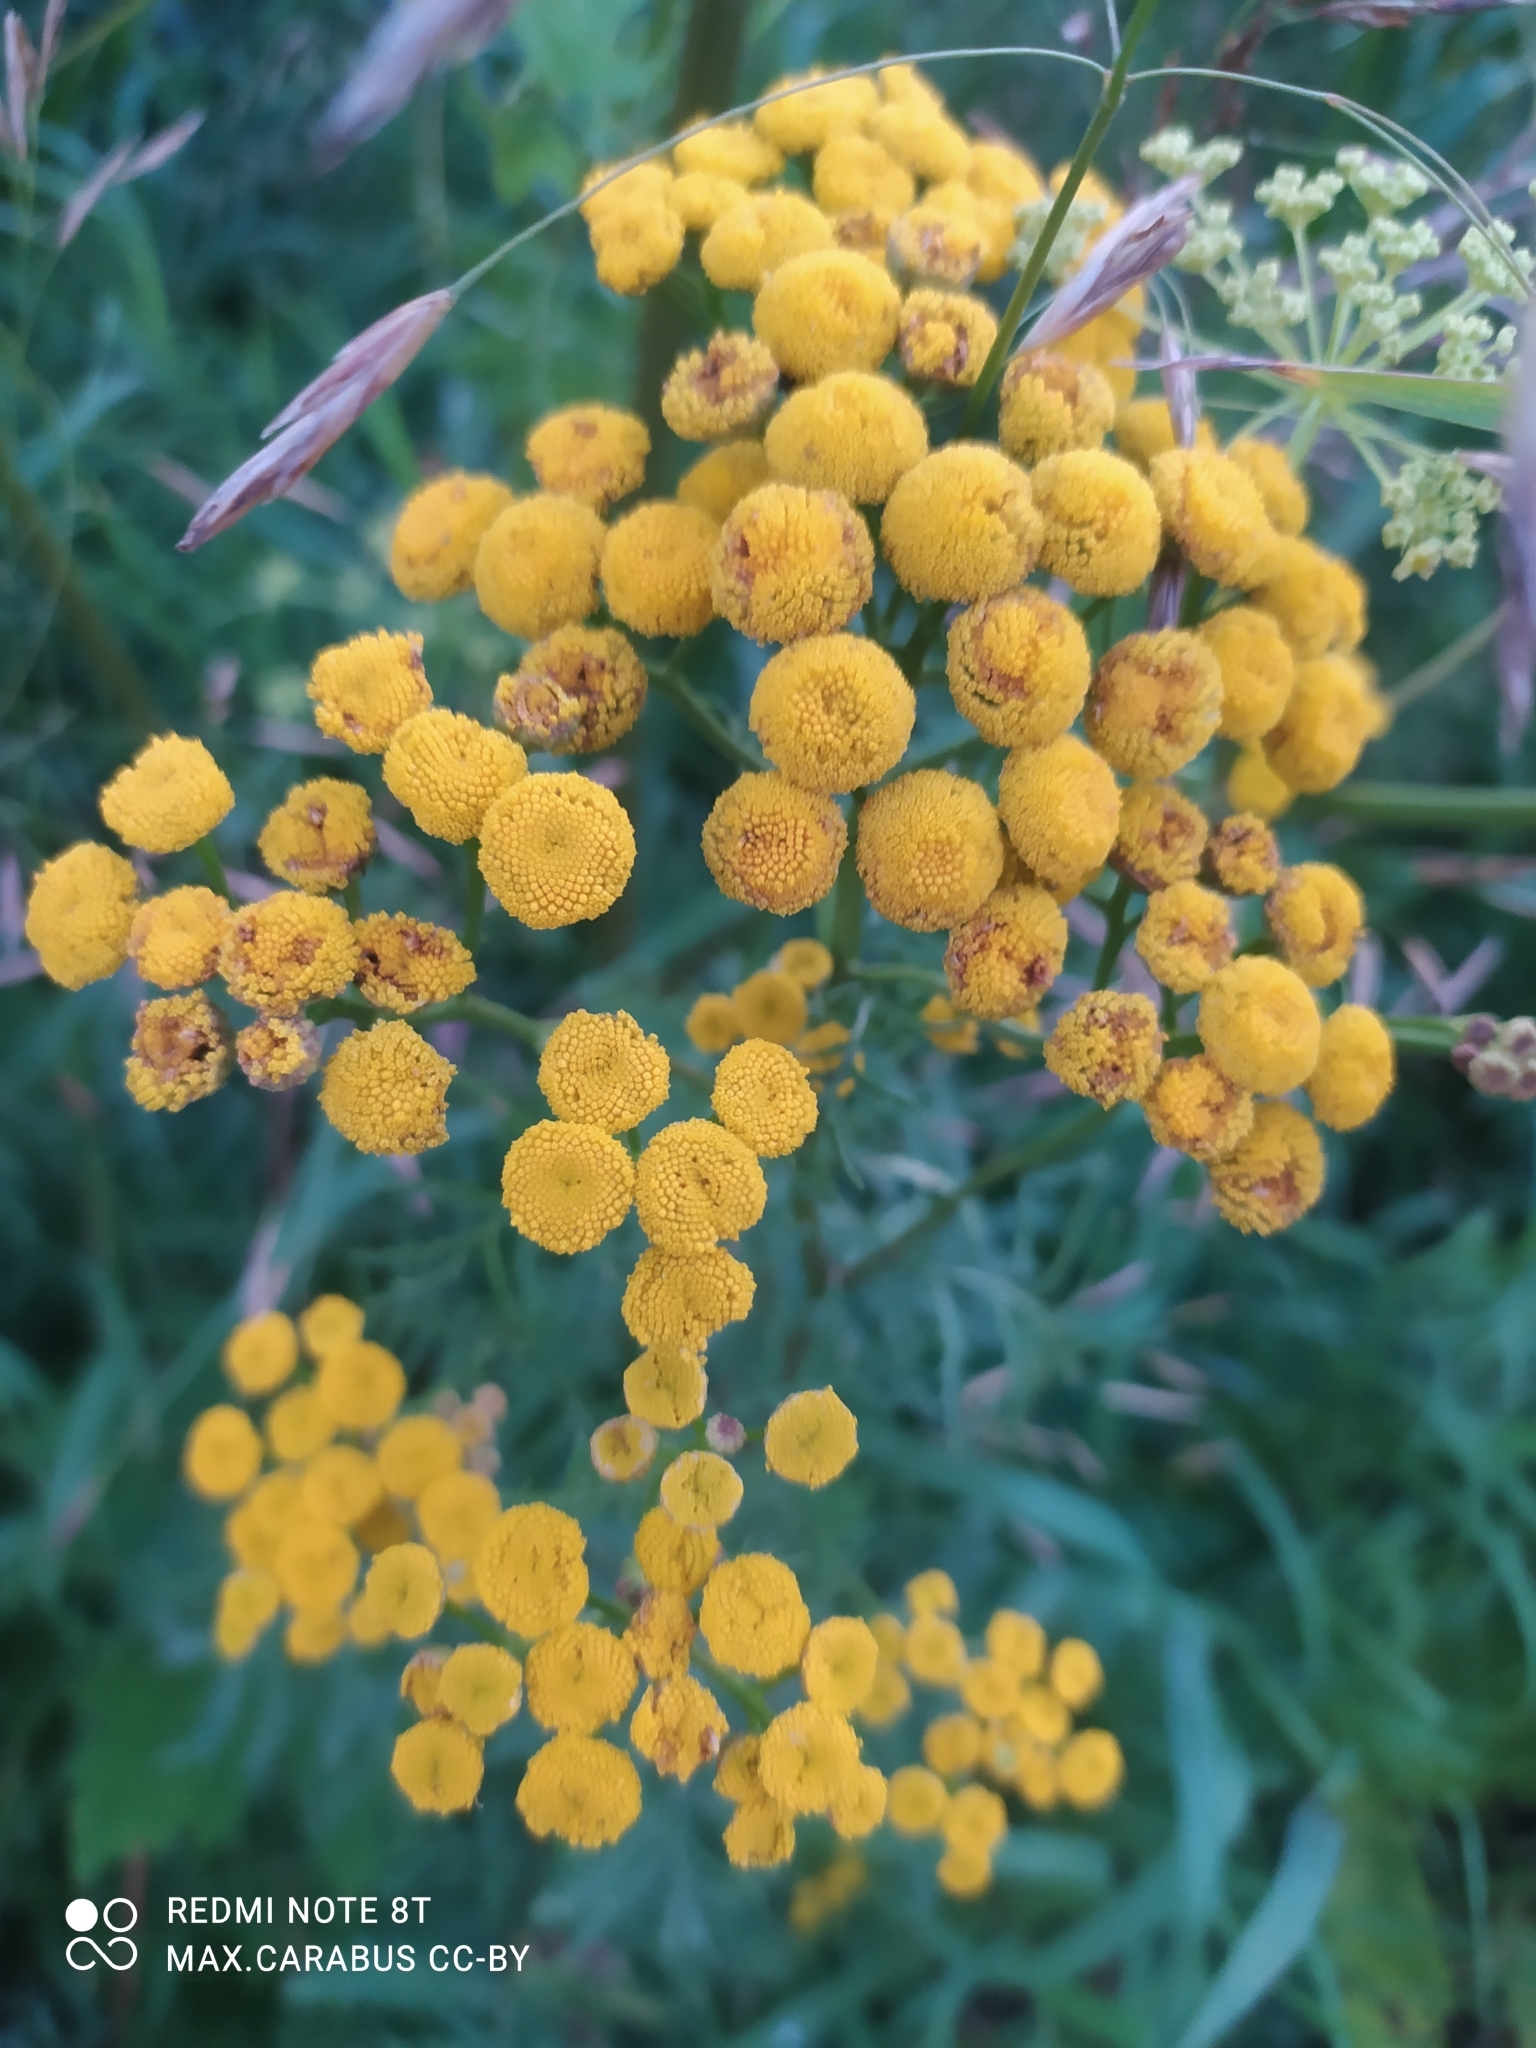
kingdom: Plantae
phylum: Tracheophyta
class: Magnoliopsida
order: Asterales
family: Asteraceae
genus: Tanacetum
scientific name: Tanacetum vulgare
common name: Common tansy
